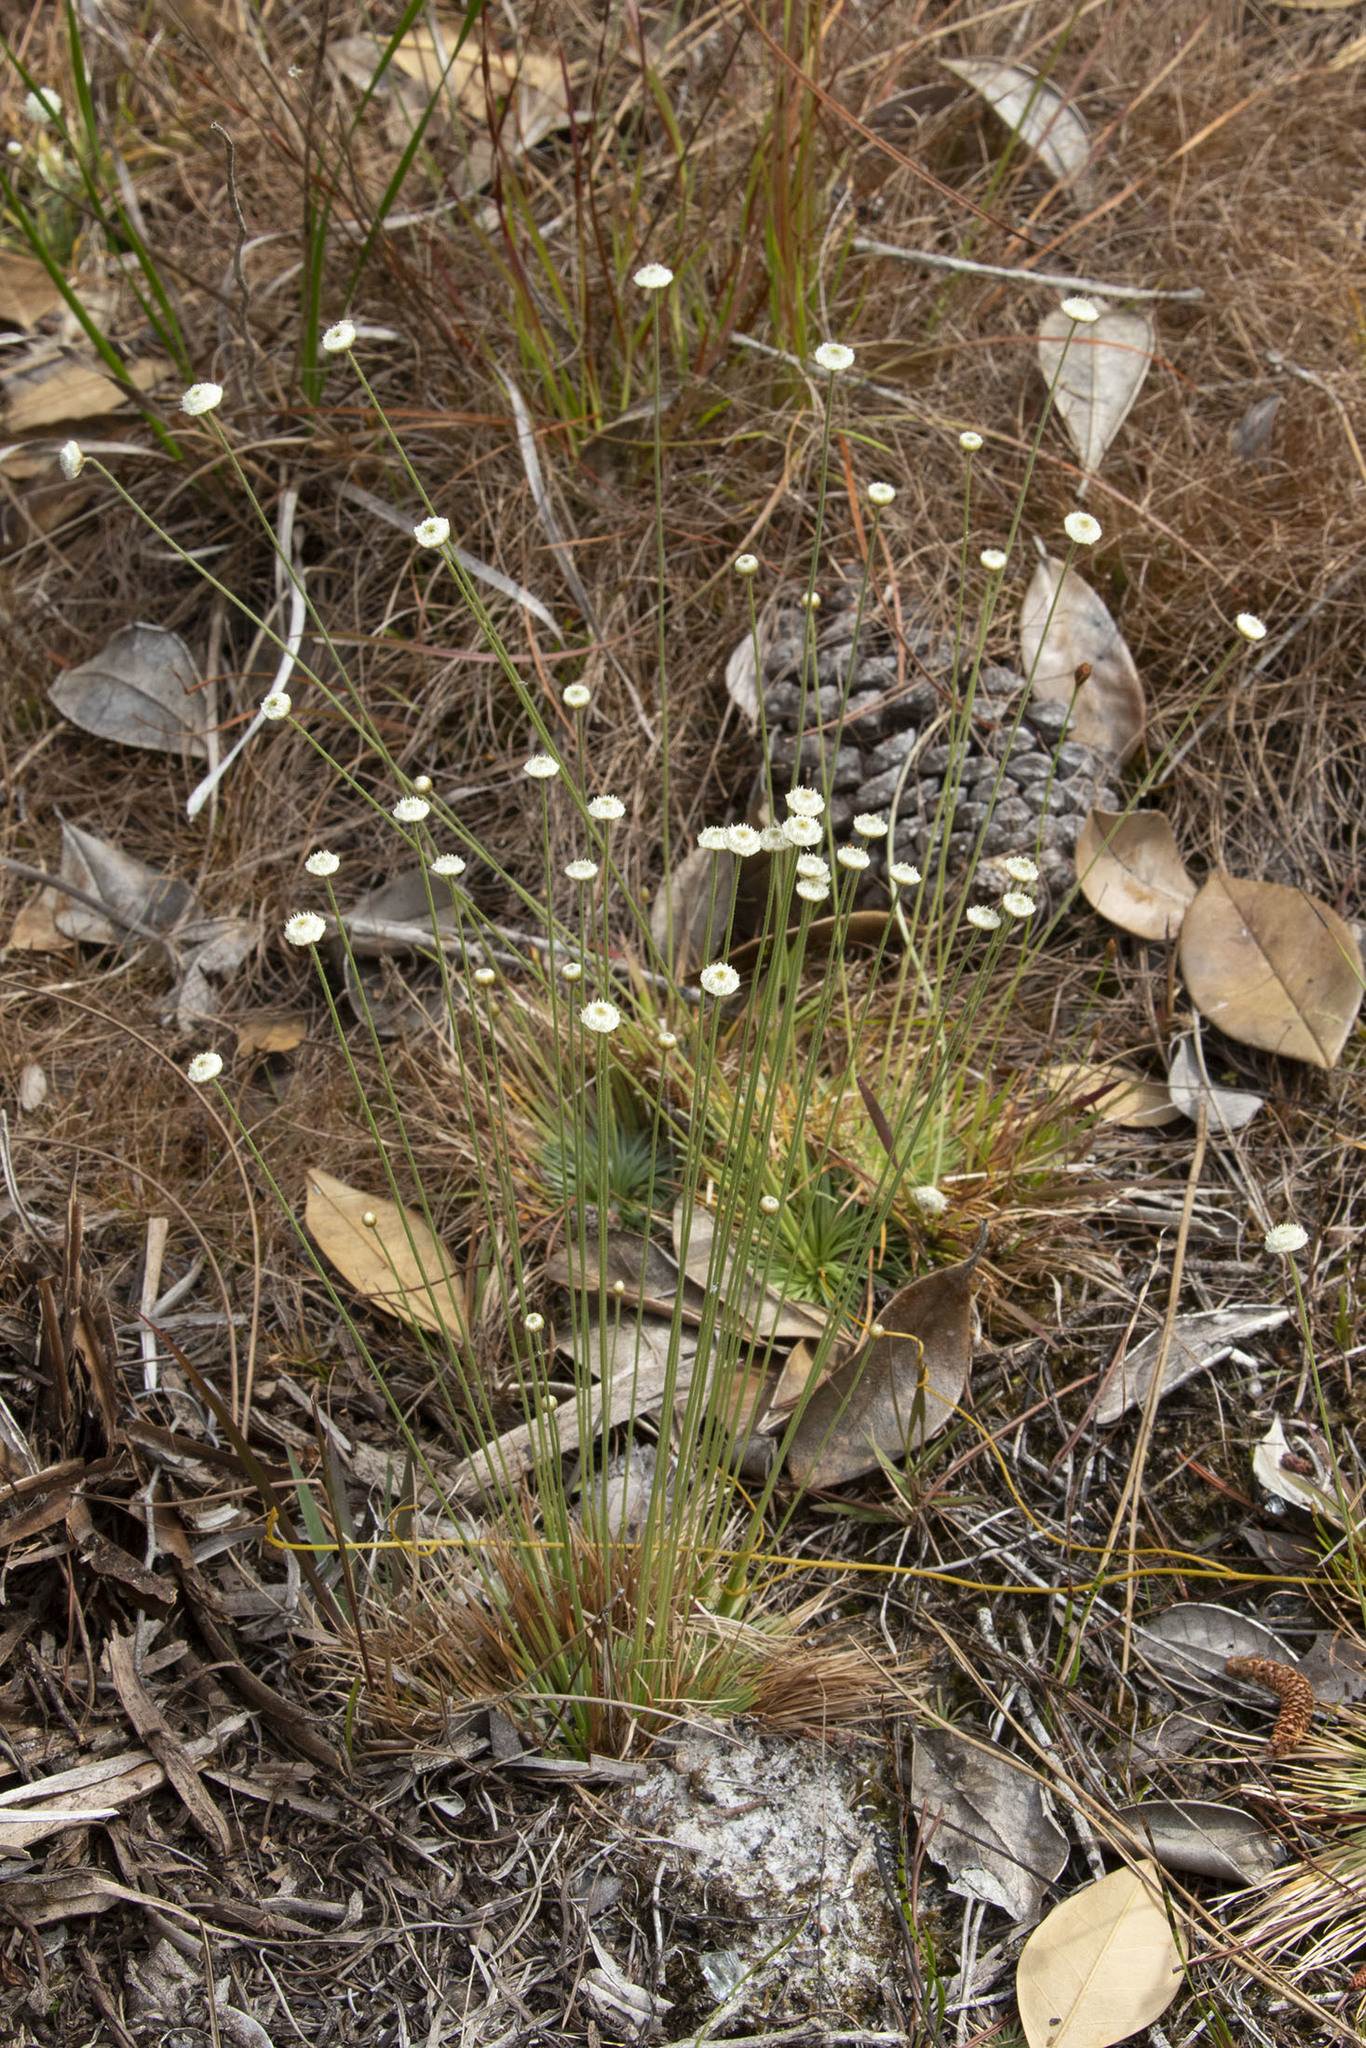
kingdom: Plantae
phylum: Tracheophyta
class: Liliopsida
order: Poales
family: Eriocaulaceae
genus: Syngonanthus
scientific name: Syngonanthus flavidulus
